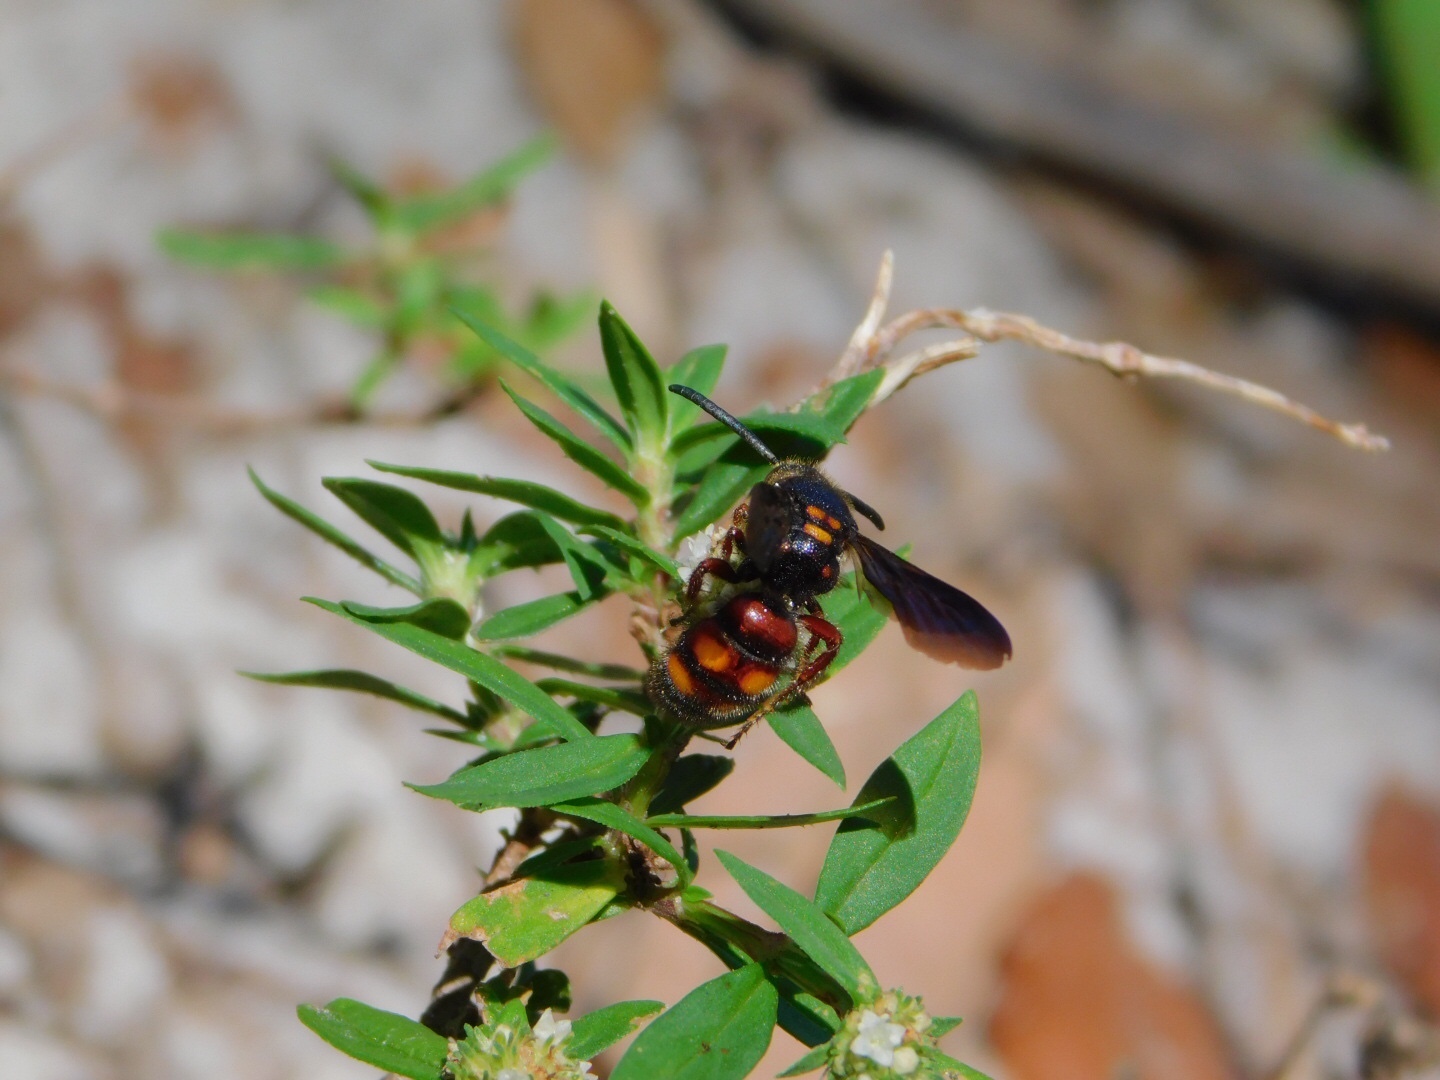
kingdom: Animalia
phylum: Arthropoda
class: Insecta
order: Hymenoptera
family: Scoliidae
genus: Scolia
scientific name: Scolia nobilitata
